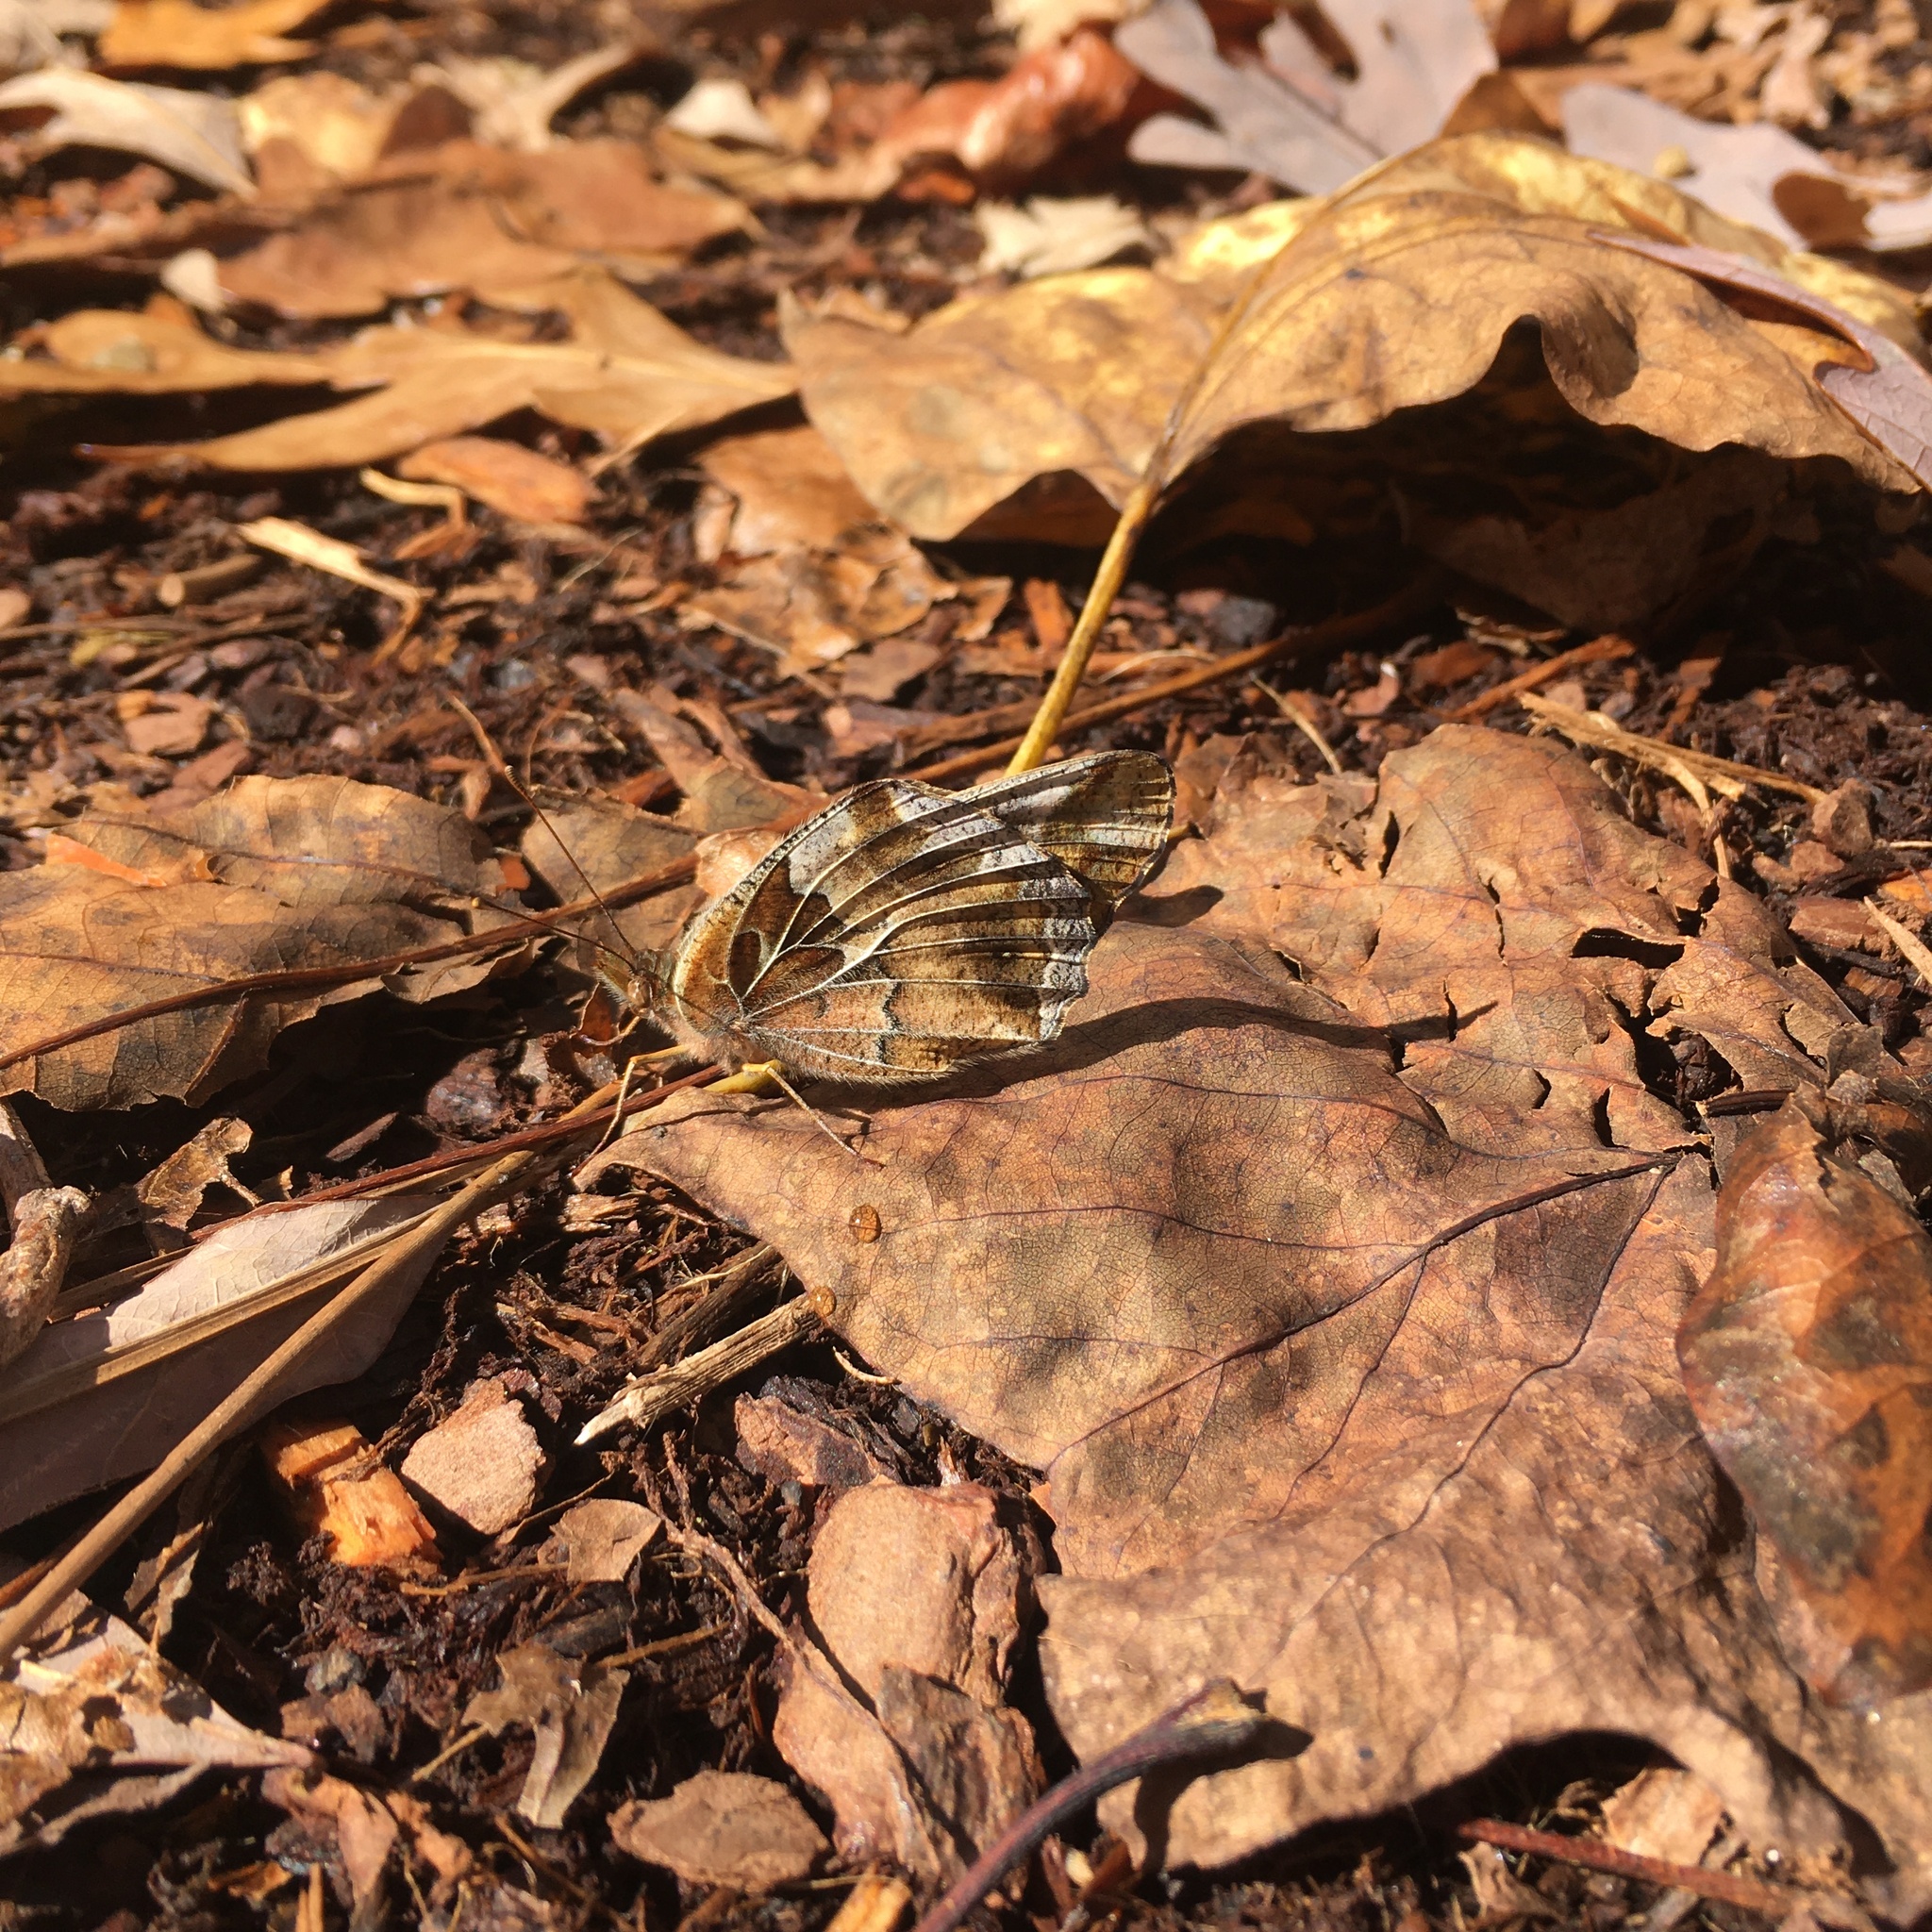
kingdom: Animalia
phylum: Arthropoda
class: Insecta
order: Lepidoptera
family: Nymphalidae
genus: Euptoieta
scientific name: Euptoieta claudia
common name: Variegated fritillary
